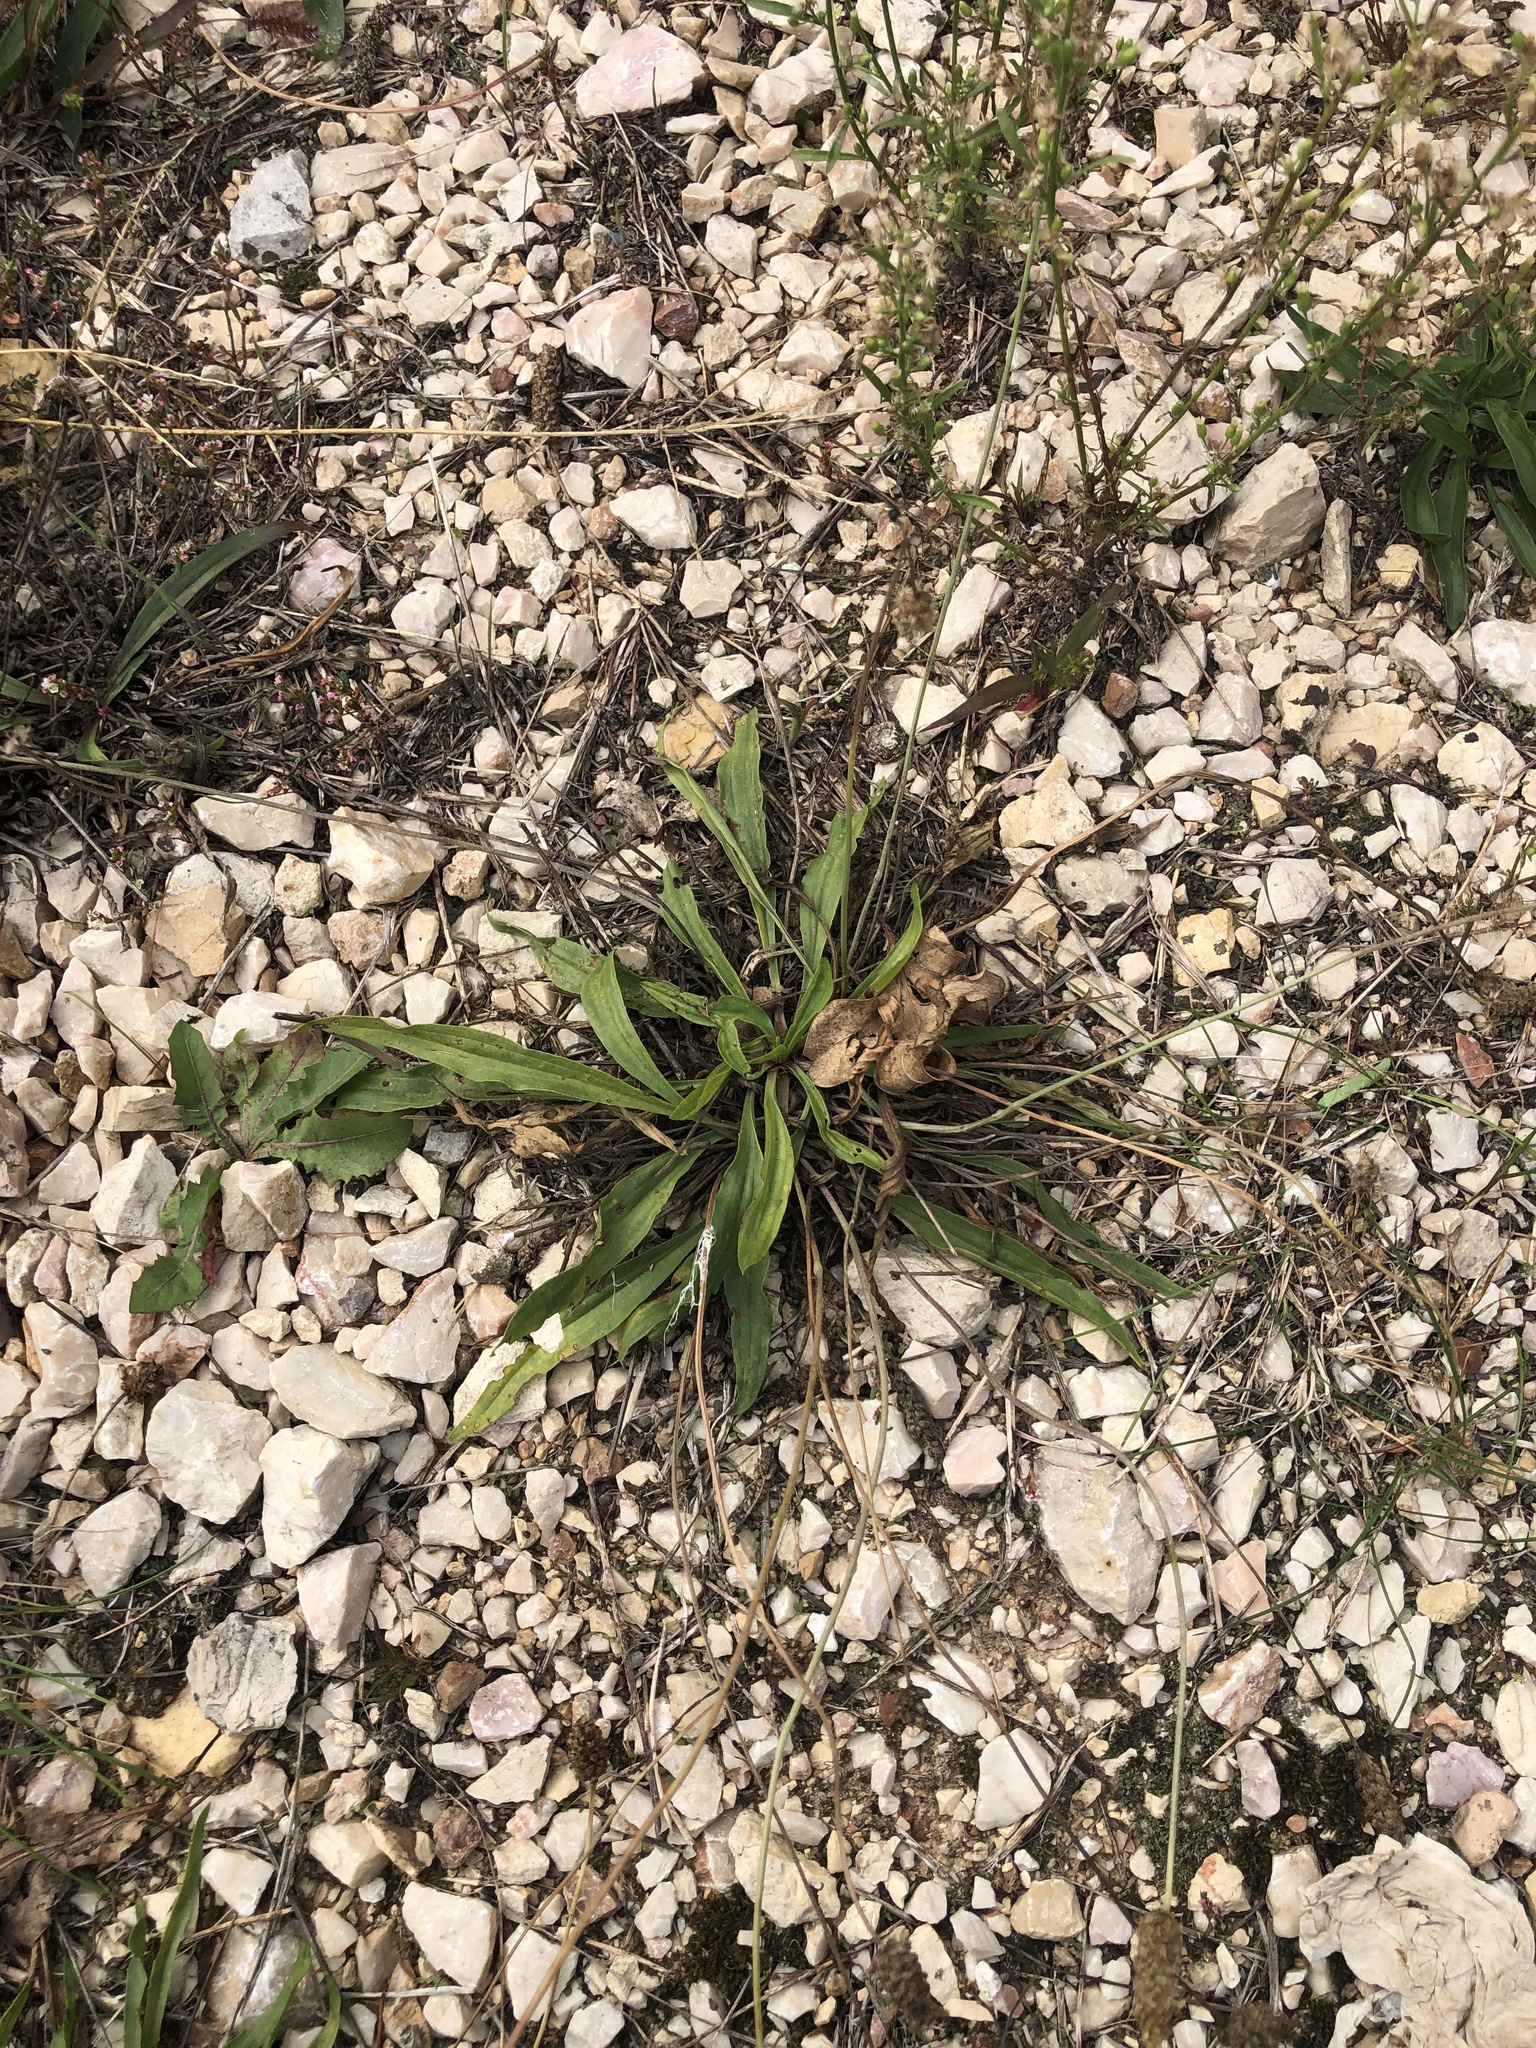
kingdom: Plantae
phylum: Tracheophyta
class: Magnoliopsida
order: Lamiales
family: Plantaginaceae
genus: Plantago
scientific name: Plantago lanceolata
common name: Ribwort plantain
